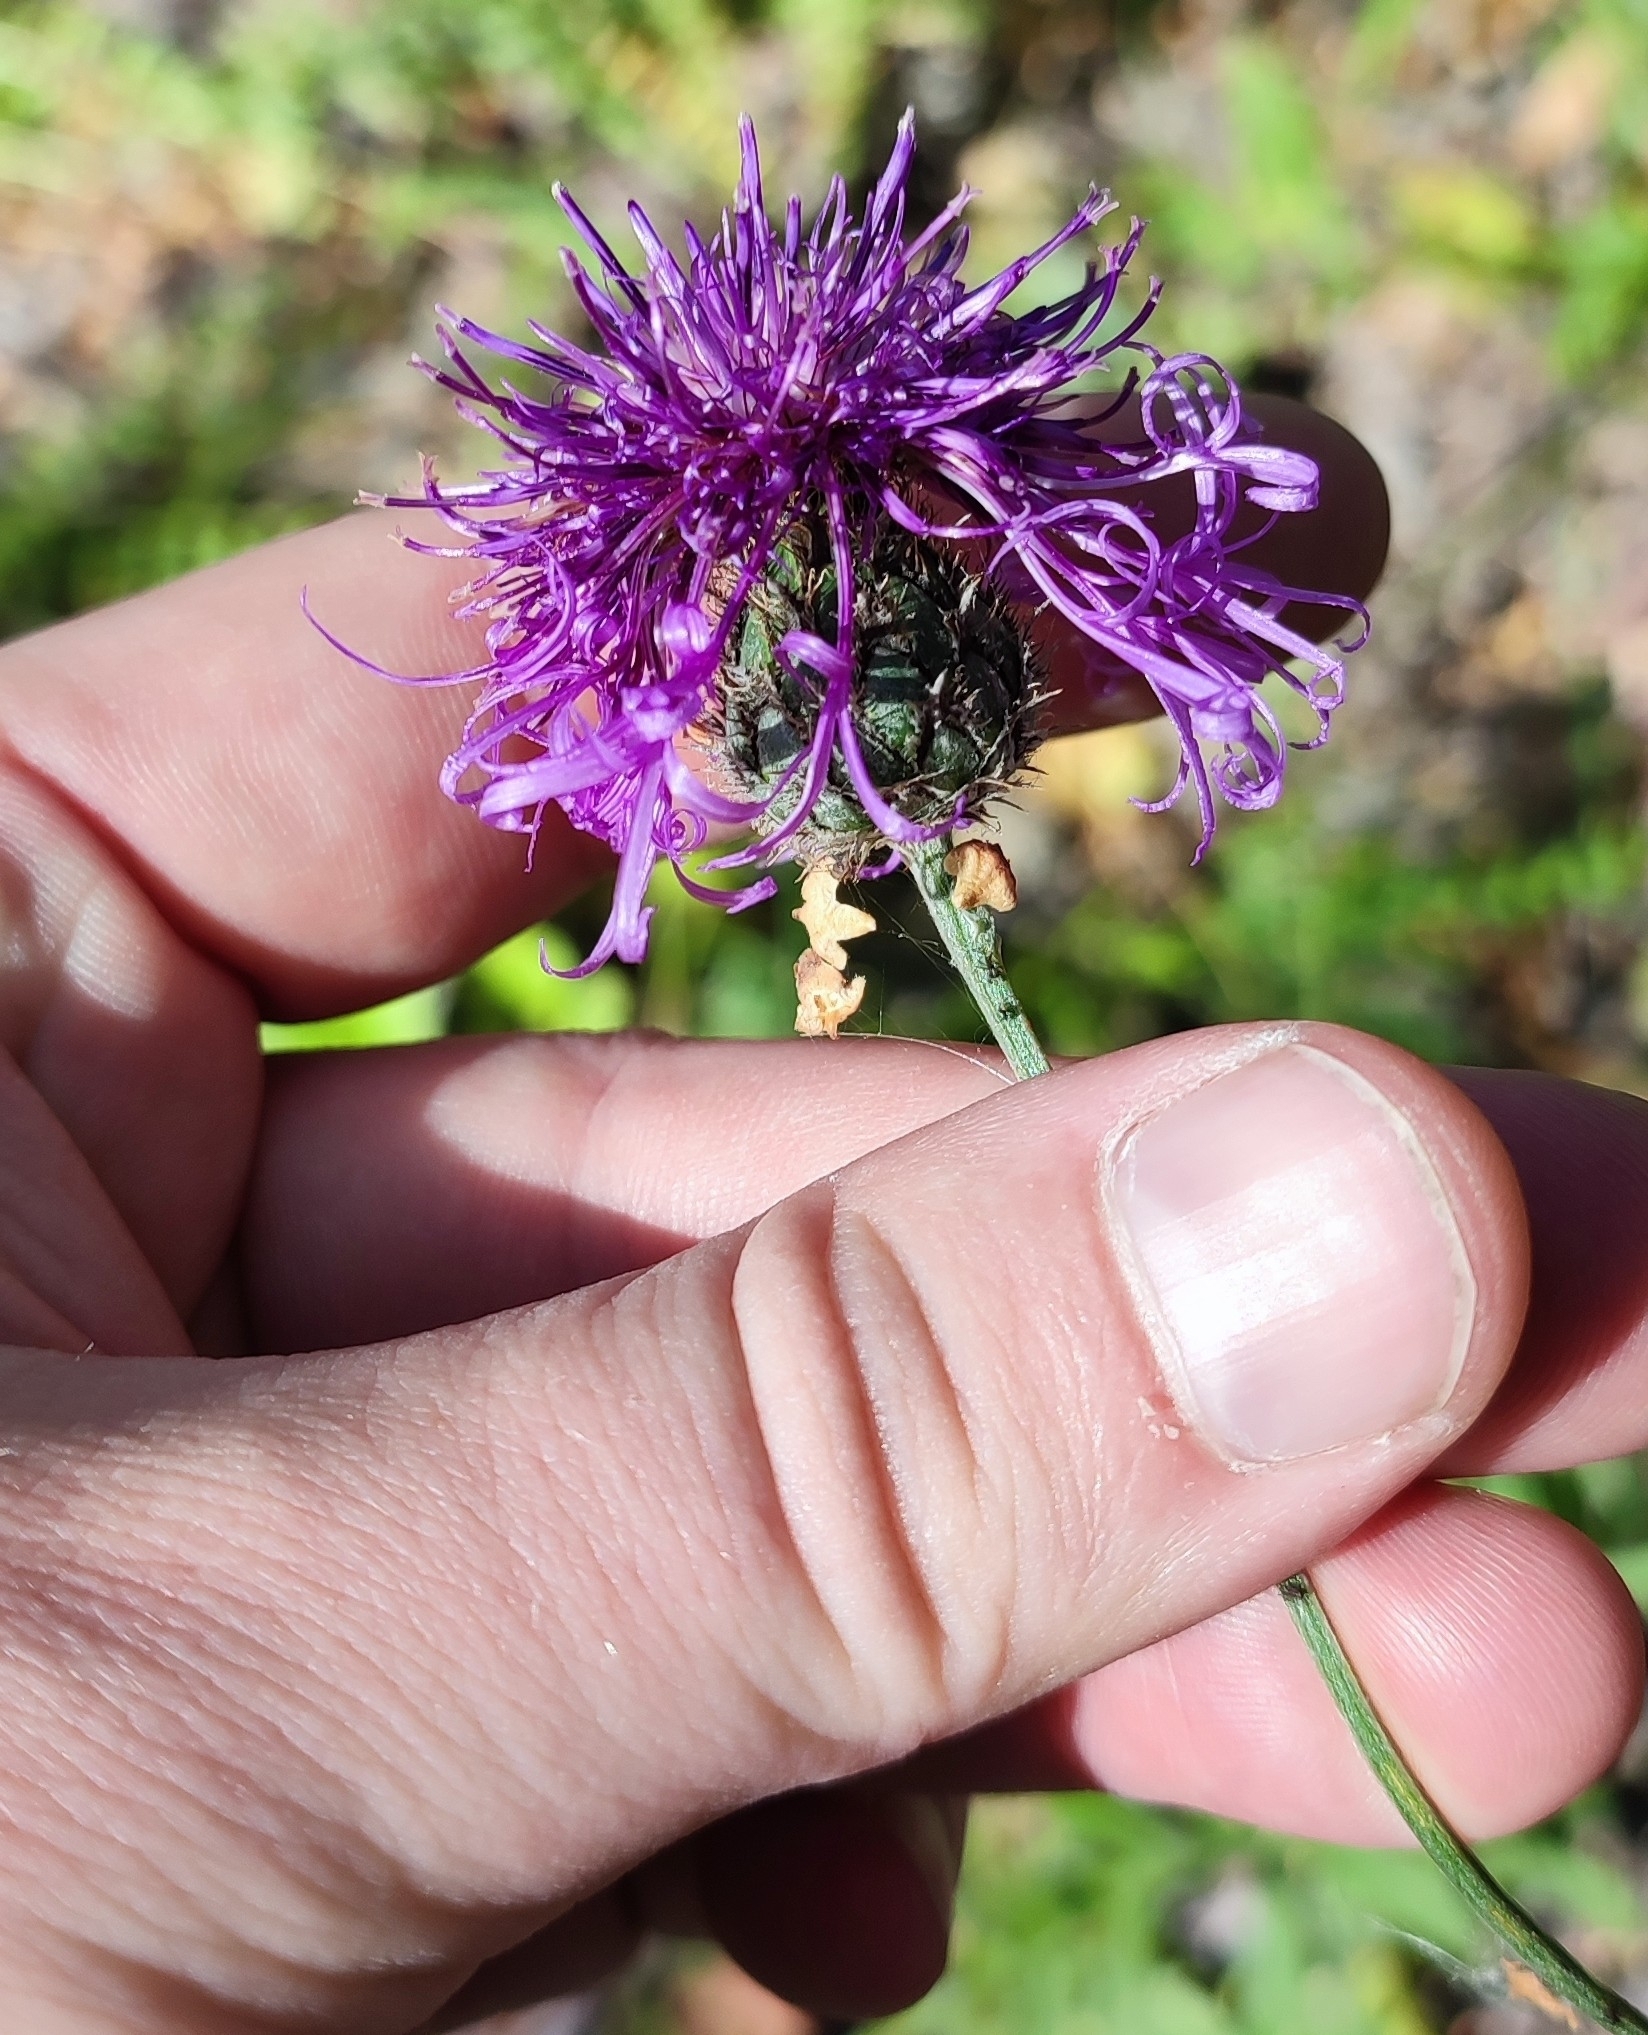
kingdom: Plantae
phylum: Tracheophyta
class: Magnoliopsida
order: Asterales
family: Asteraceae
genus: Centaurea
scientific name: Centaurea scabiosa
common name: Greater knapweed
